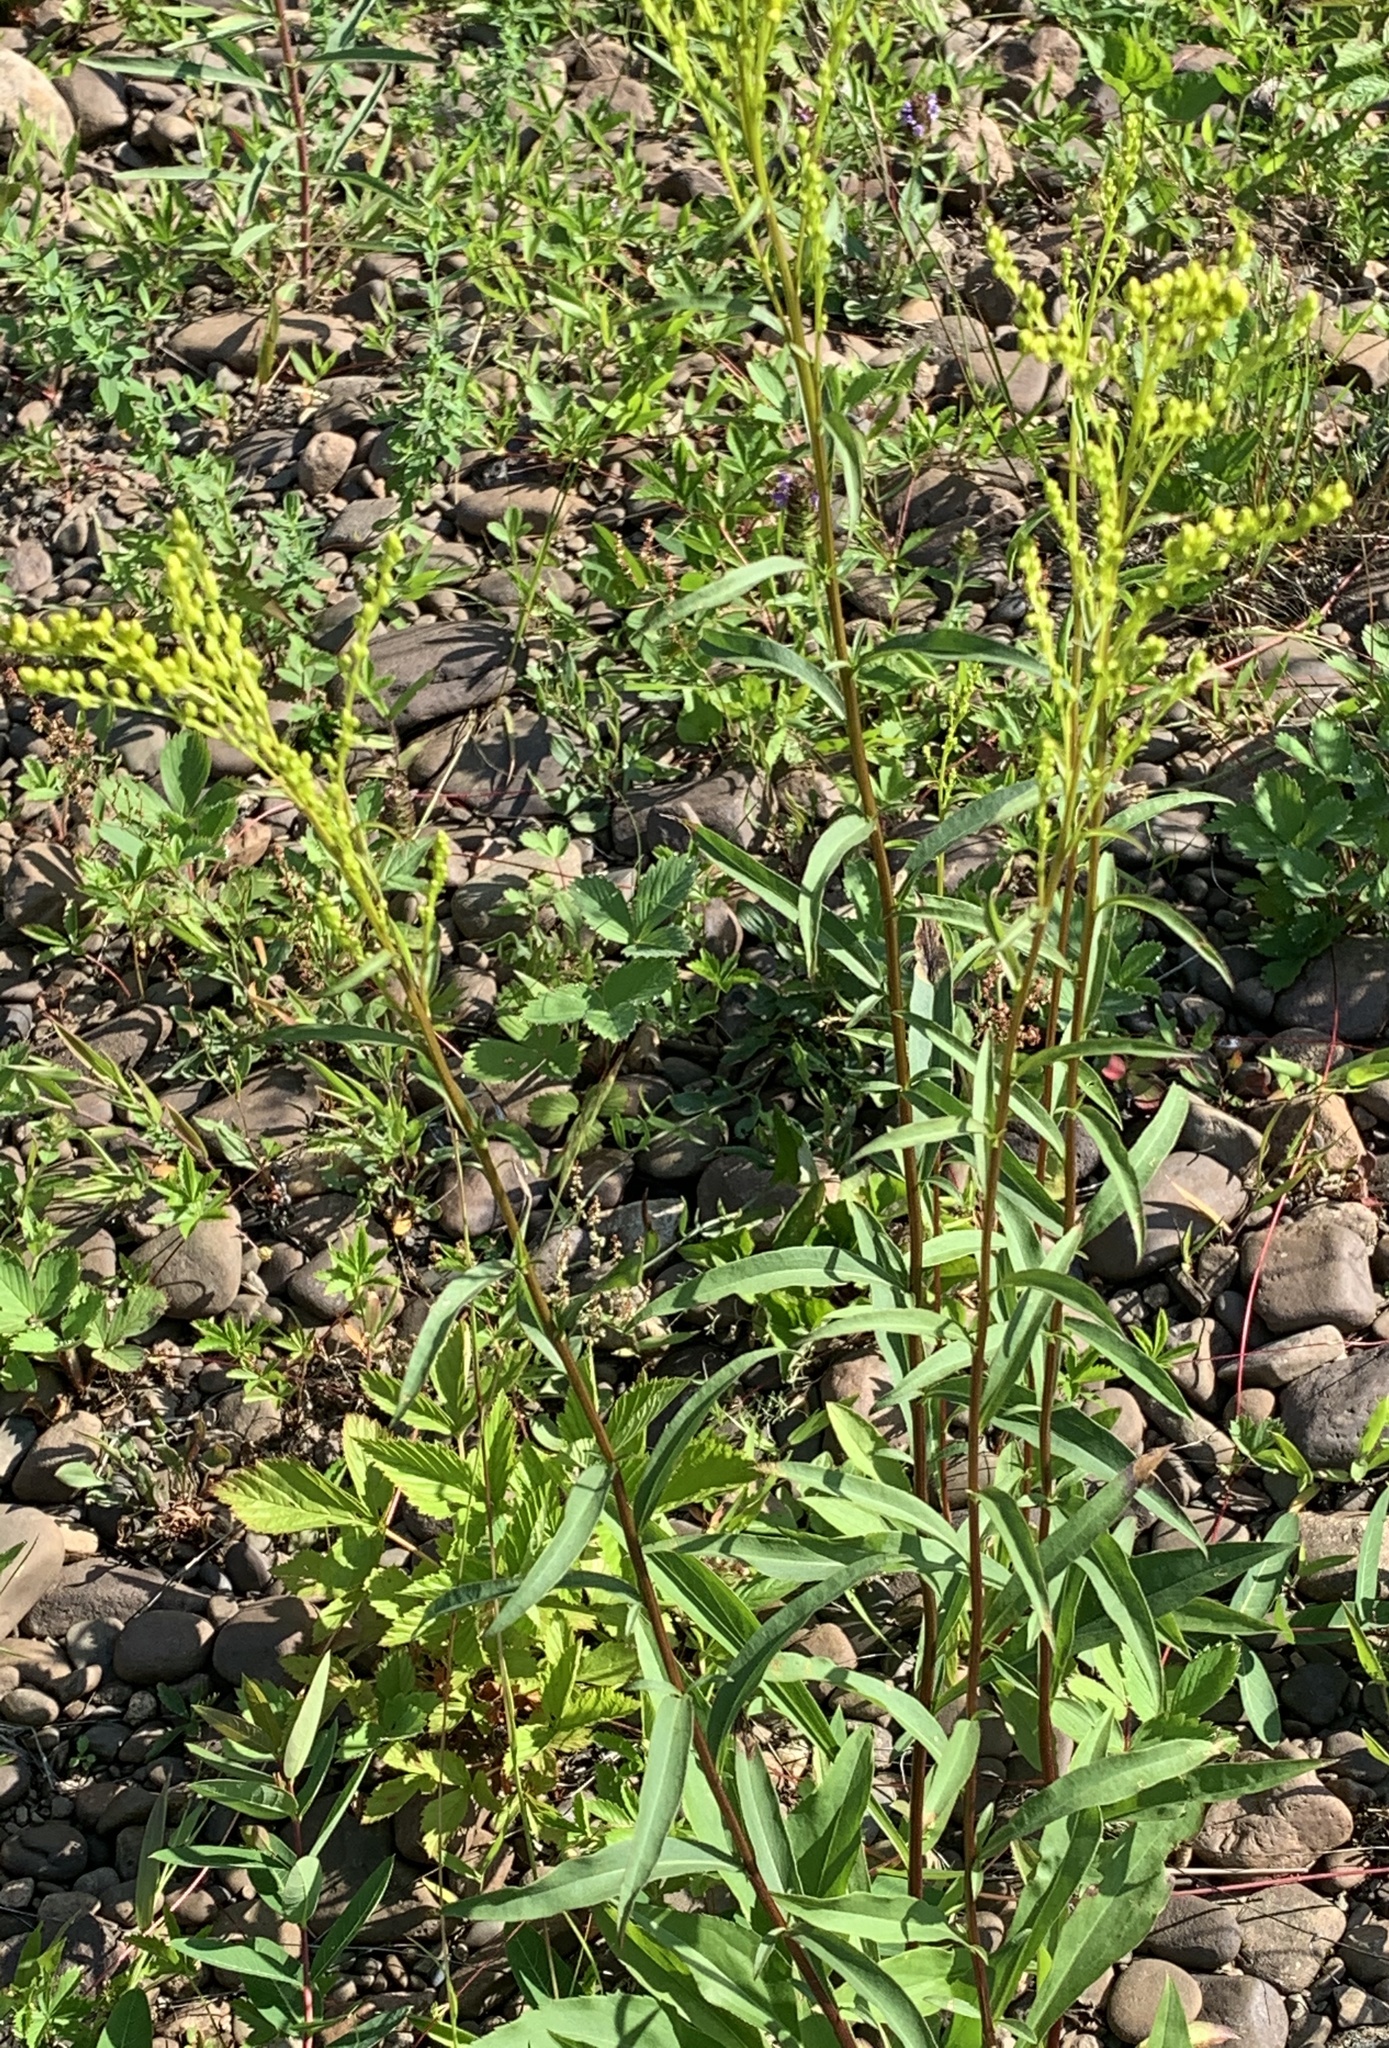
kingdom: Plantae
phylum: Tracheophyta
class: Magnoliopsida
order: Asterales
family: Asteraceae
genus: Solidago
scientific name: Solidago juncea
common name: Early goldenrod
